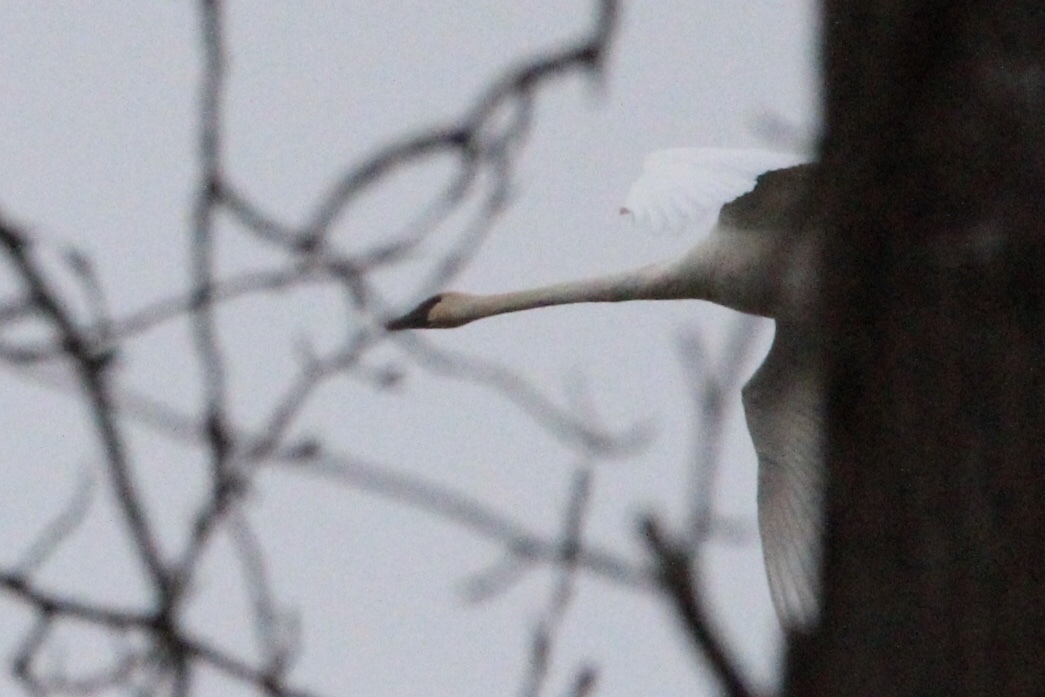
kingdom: Animalia
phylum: Chordata
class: Aves
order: Anseriformes
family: Anatidae
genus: Cygnus
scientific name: Cygnus buccinator
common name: Trumpeter swan
